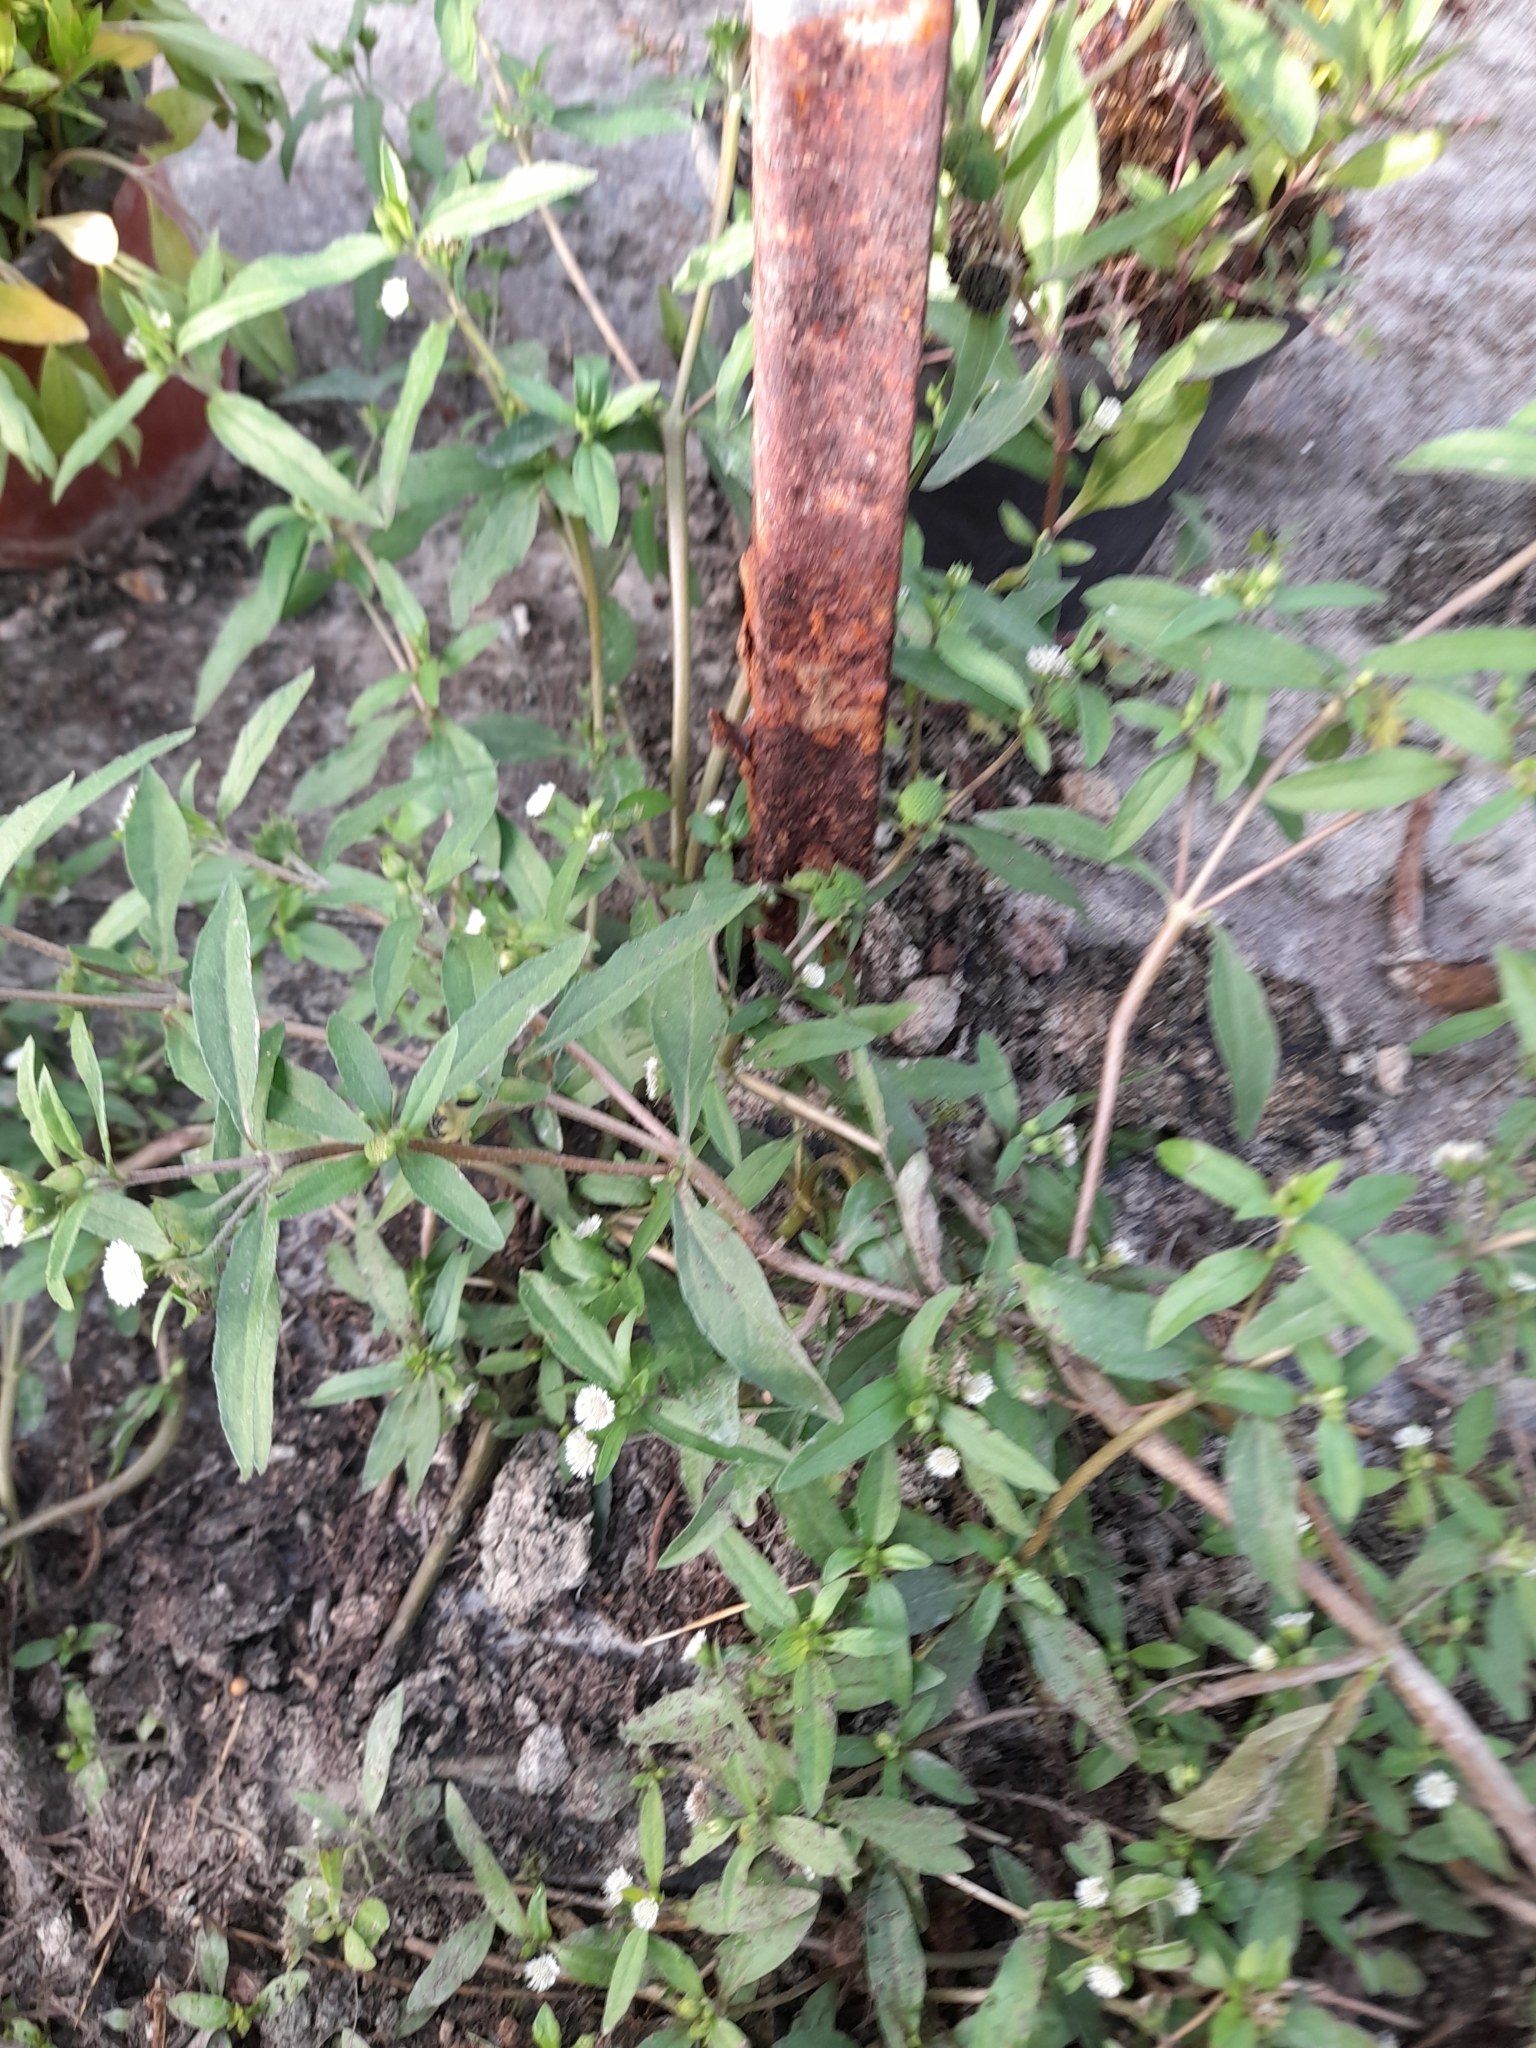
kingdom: Plantae
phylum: Tracheophyta
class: Magnoliopsida
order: Asterales
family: Asteraceae
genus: Eclipta
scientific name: Eclipta prostrata
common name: False daisy
